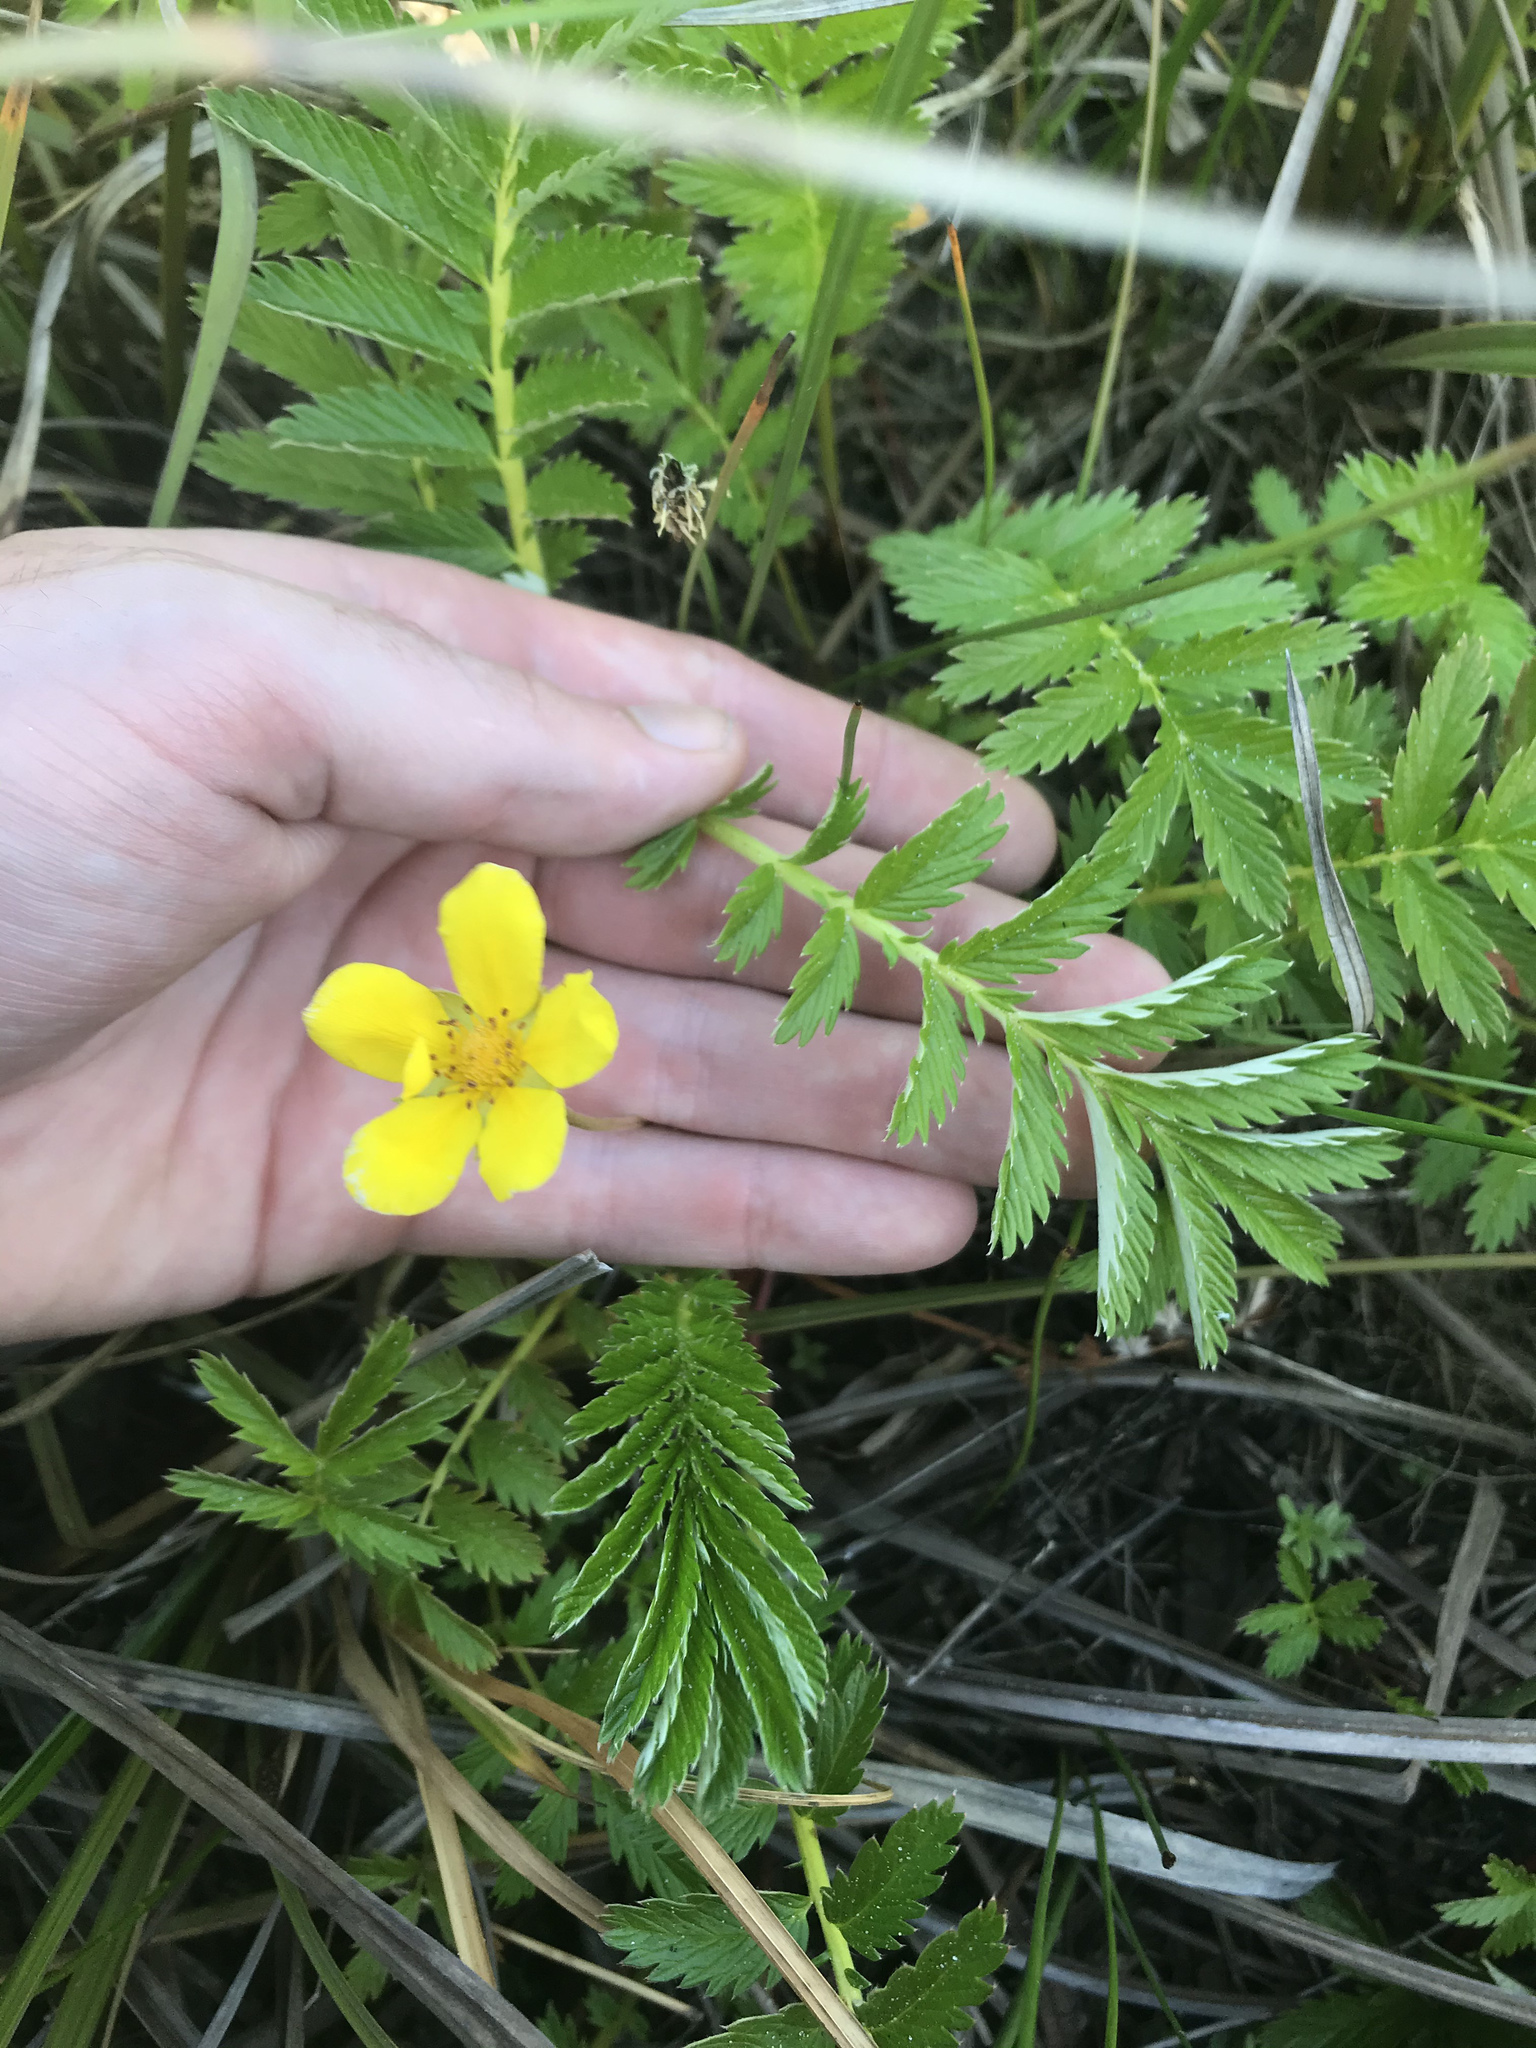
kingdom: Plantae
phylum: Tracheophyta
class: Magnoliopsida
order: Rosales
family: Rosaceae
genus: Argentina
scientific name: Argentina anserina
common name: Common silverweed
